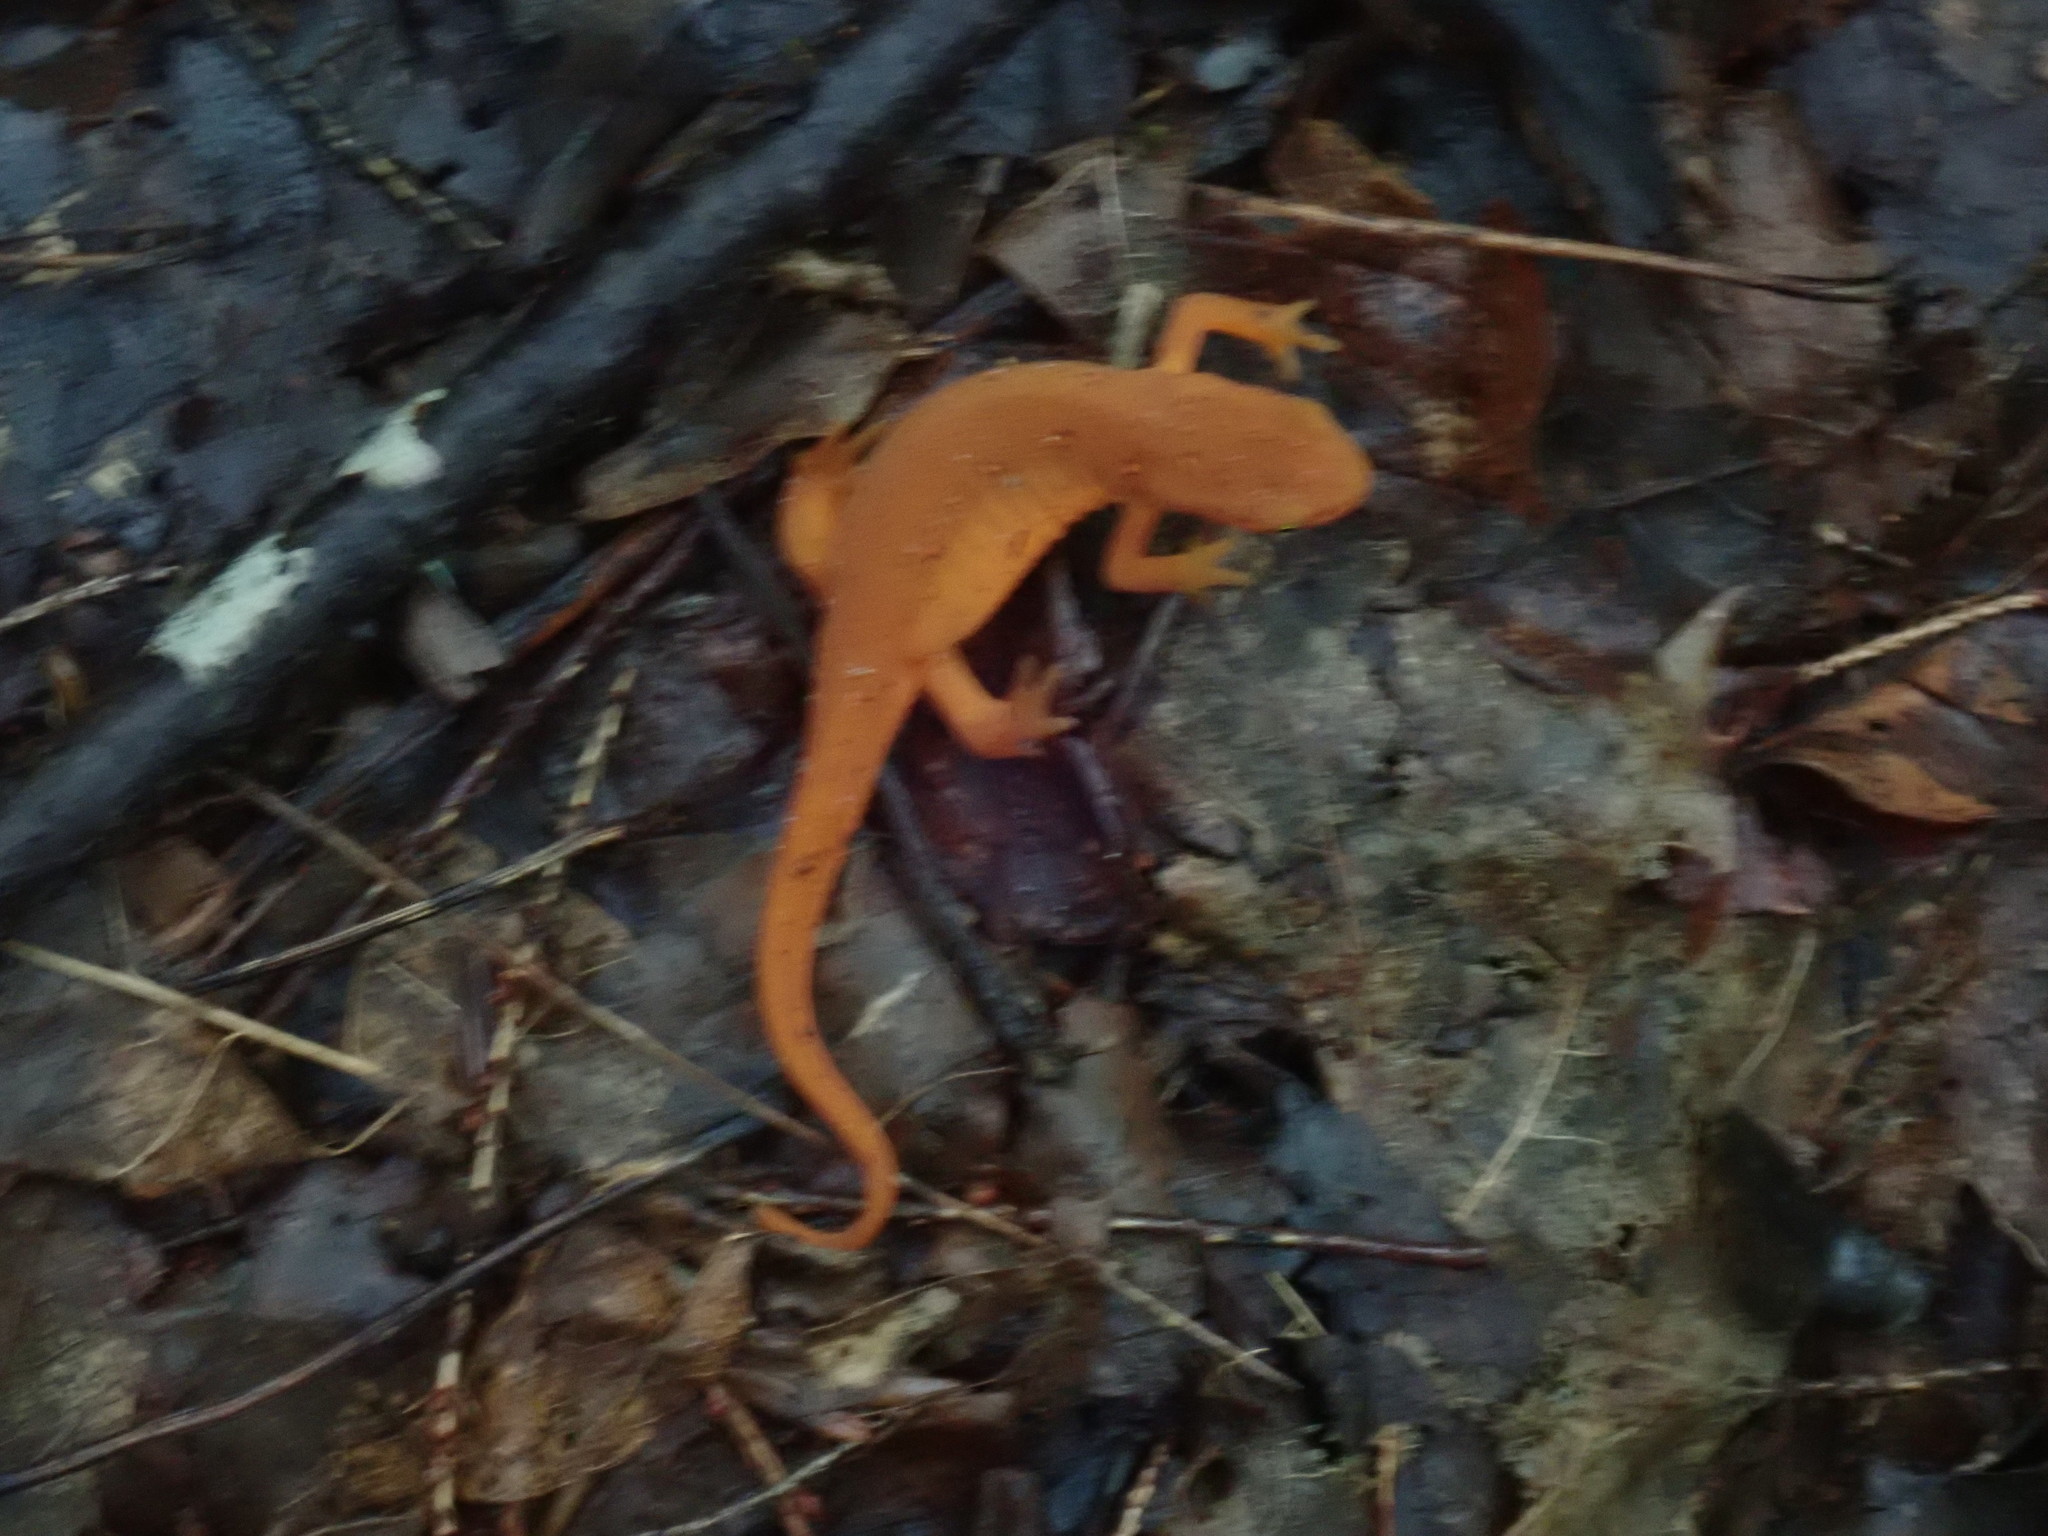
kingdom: Animalia
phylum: Chordata
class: Amphibia
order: Caudata
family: Salamandridae
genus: Notophthalmus
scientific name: Notophthalmus viridescens
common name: Eastern newt
